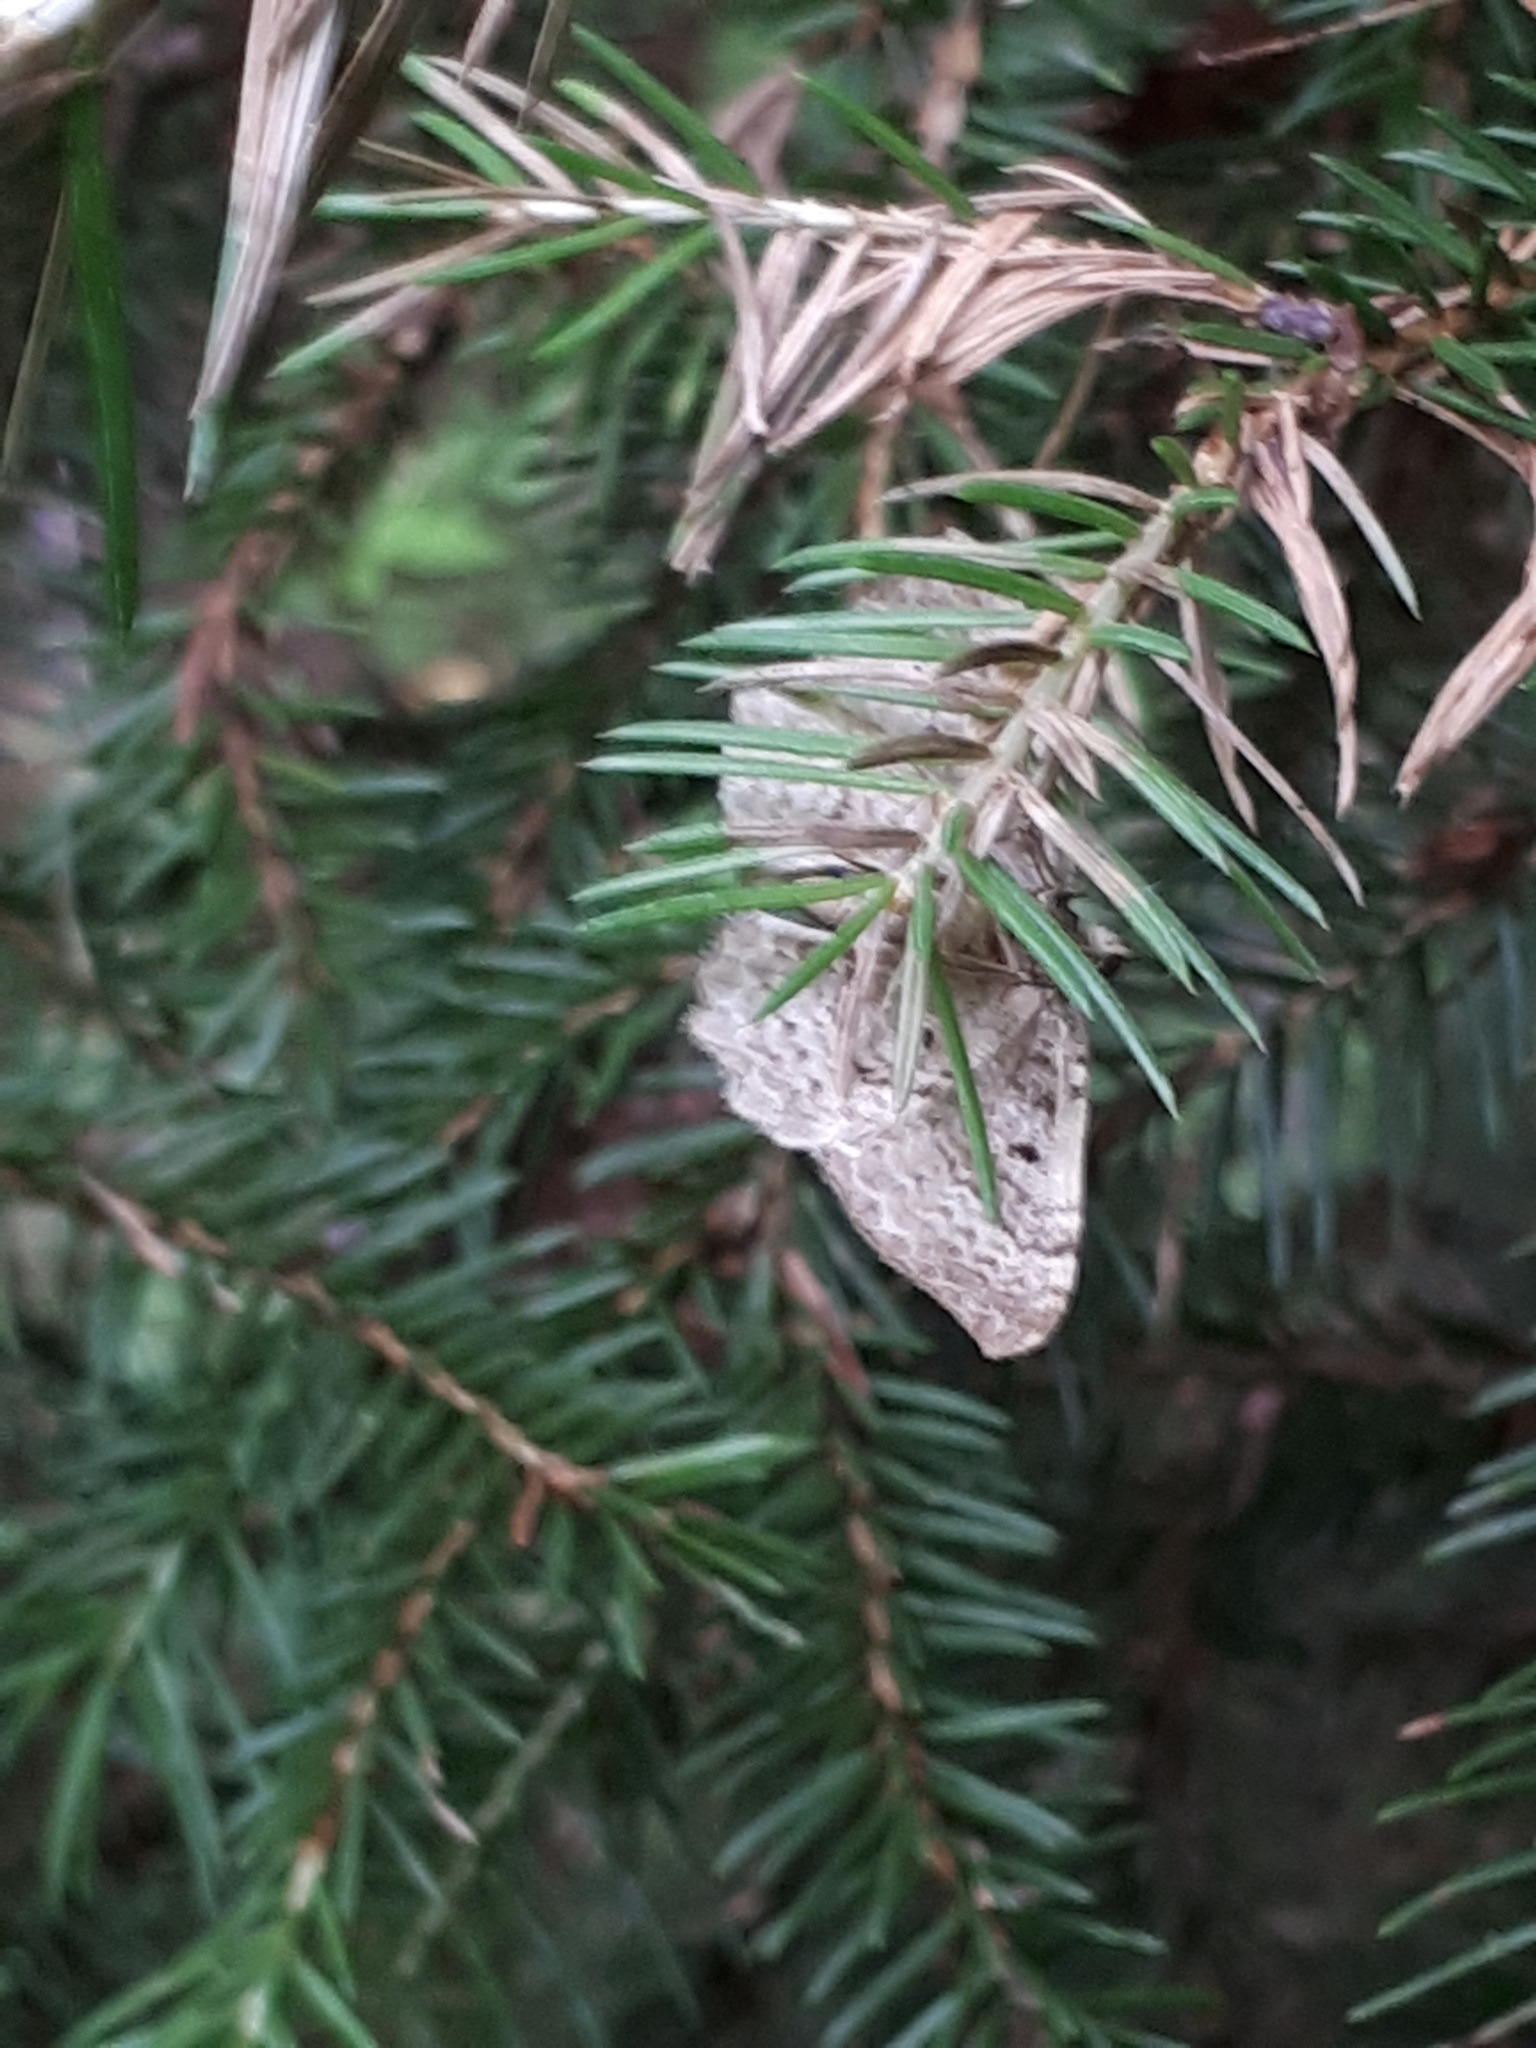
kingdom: Animalia
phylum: Arthropoda
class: Insecta
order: Lepidoptera
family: Geometridae
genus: Rheumaptera
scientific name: Rheumaptera undulata
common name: Scallop shell
